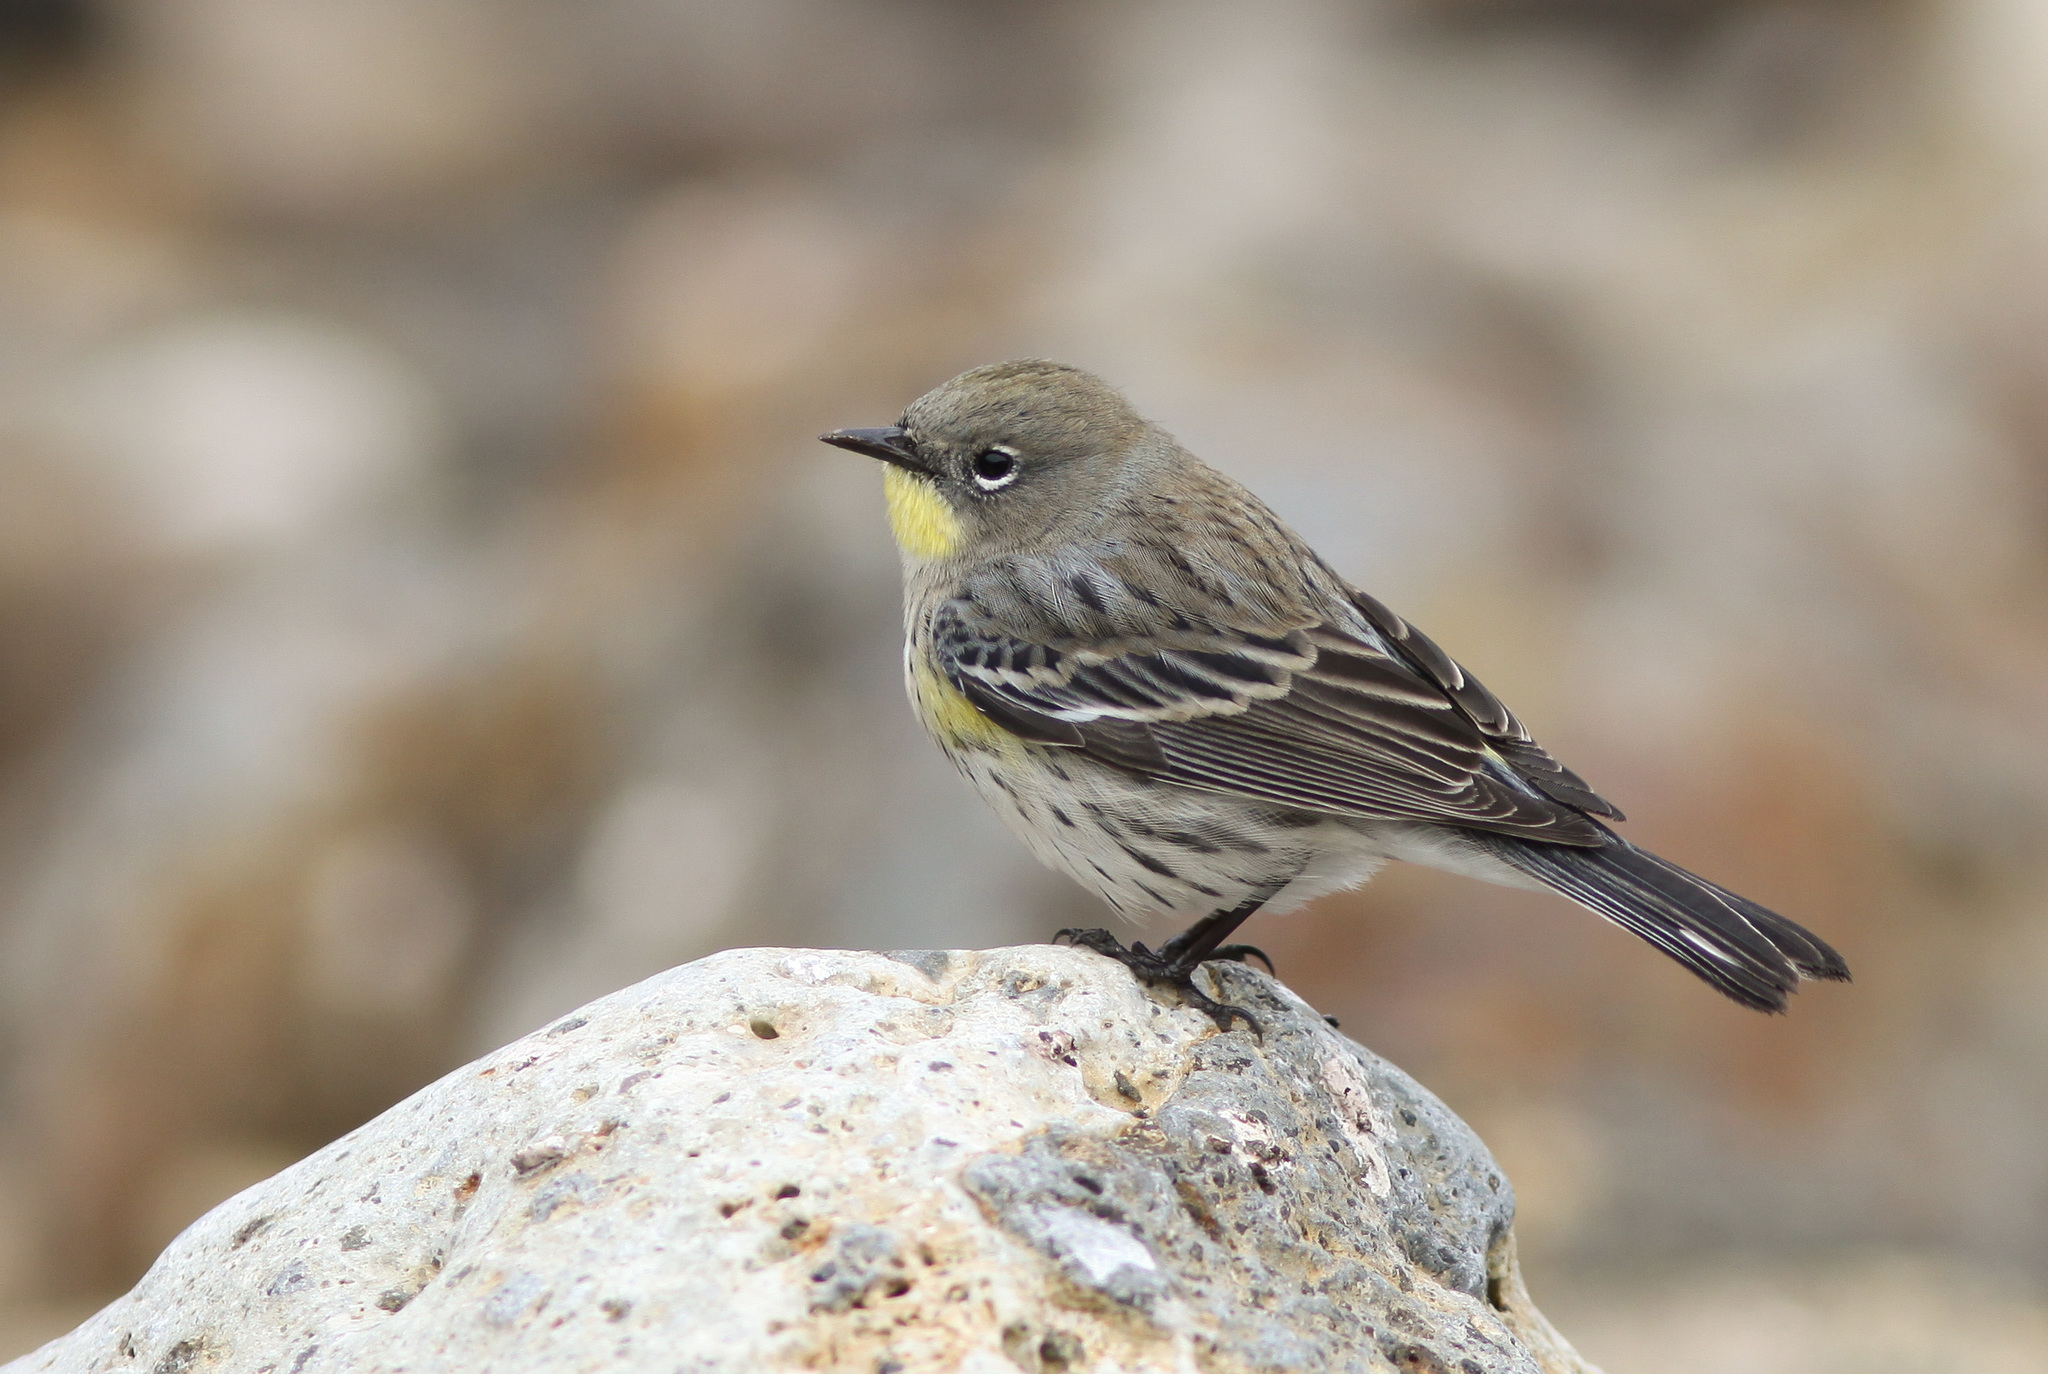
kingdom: Animalia
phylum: Chordata
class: Aves
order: Passeriformes
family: Parulidae
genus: Setophaga
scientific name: Setophaga auduboni
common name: Audubon's warbler
